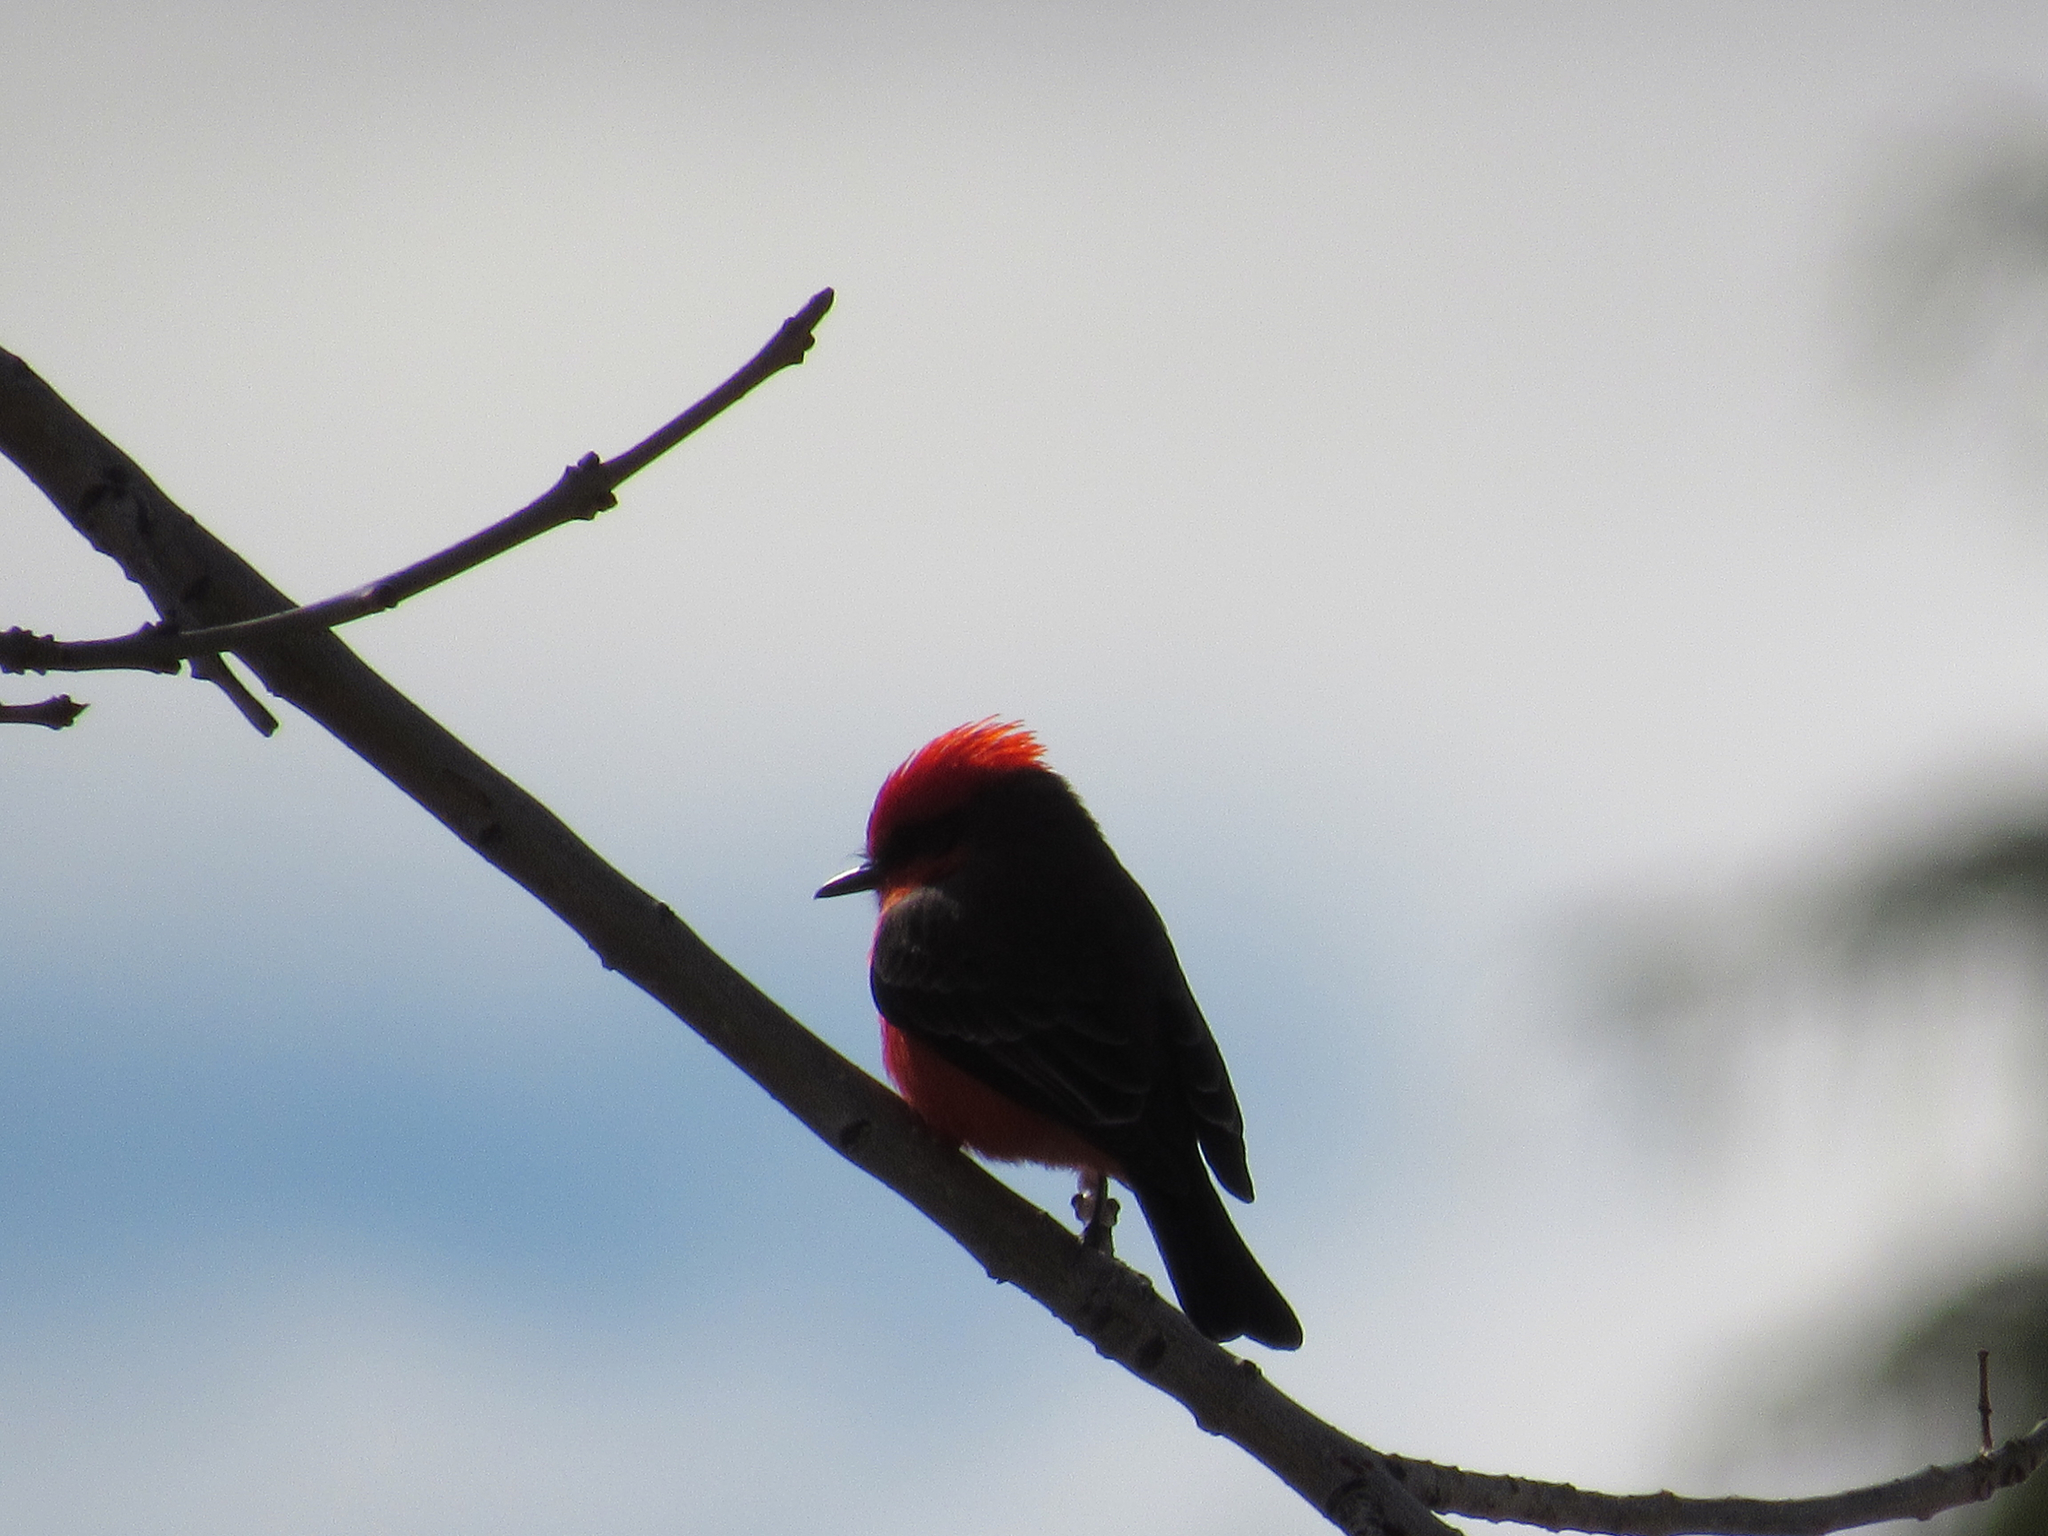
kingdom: Animalia
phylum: Chordata
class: Aves
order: Passeriformes
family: Tyrannidae
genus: Pyrocephalus
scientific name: Pyrocephalus rubinus
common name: Vermilion flycatcher
